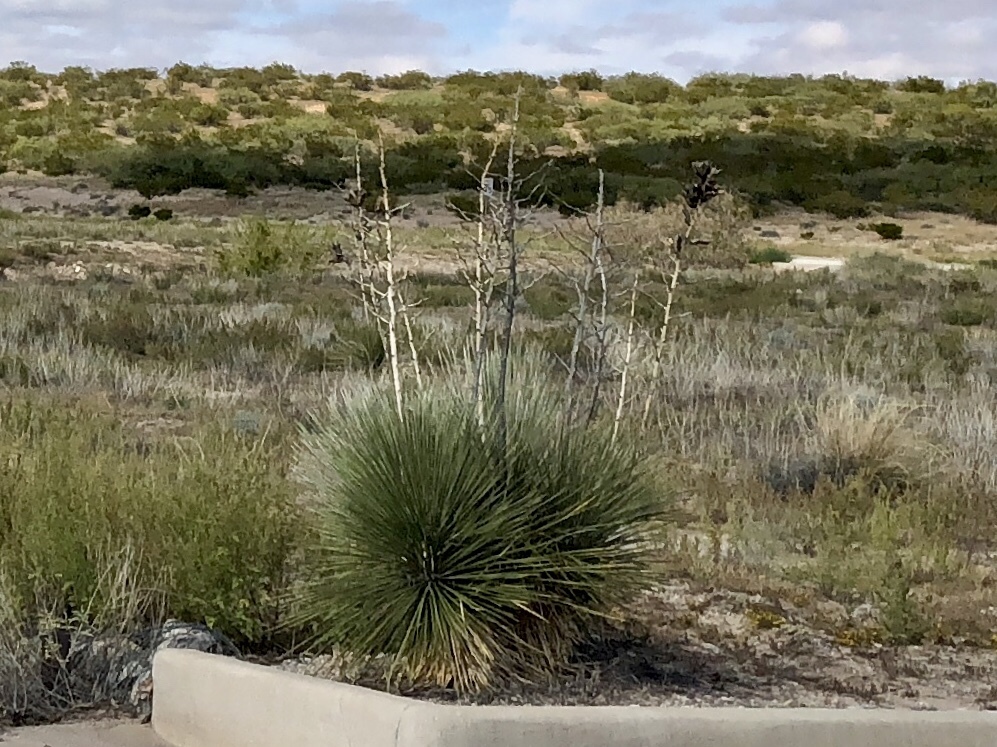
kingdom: Plantae
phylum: Tracheophyta
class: Liliopsida
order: Asparagales
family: Asparagaceae
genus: Yucca
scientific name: Yucca elata
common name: Palmella
